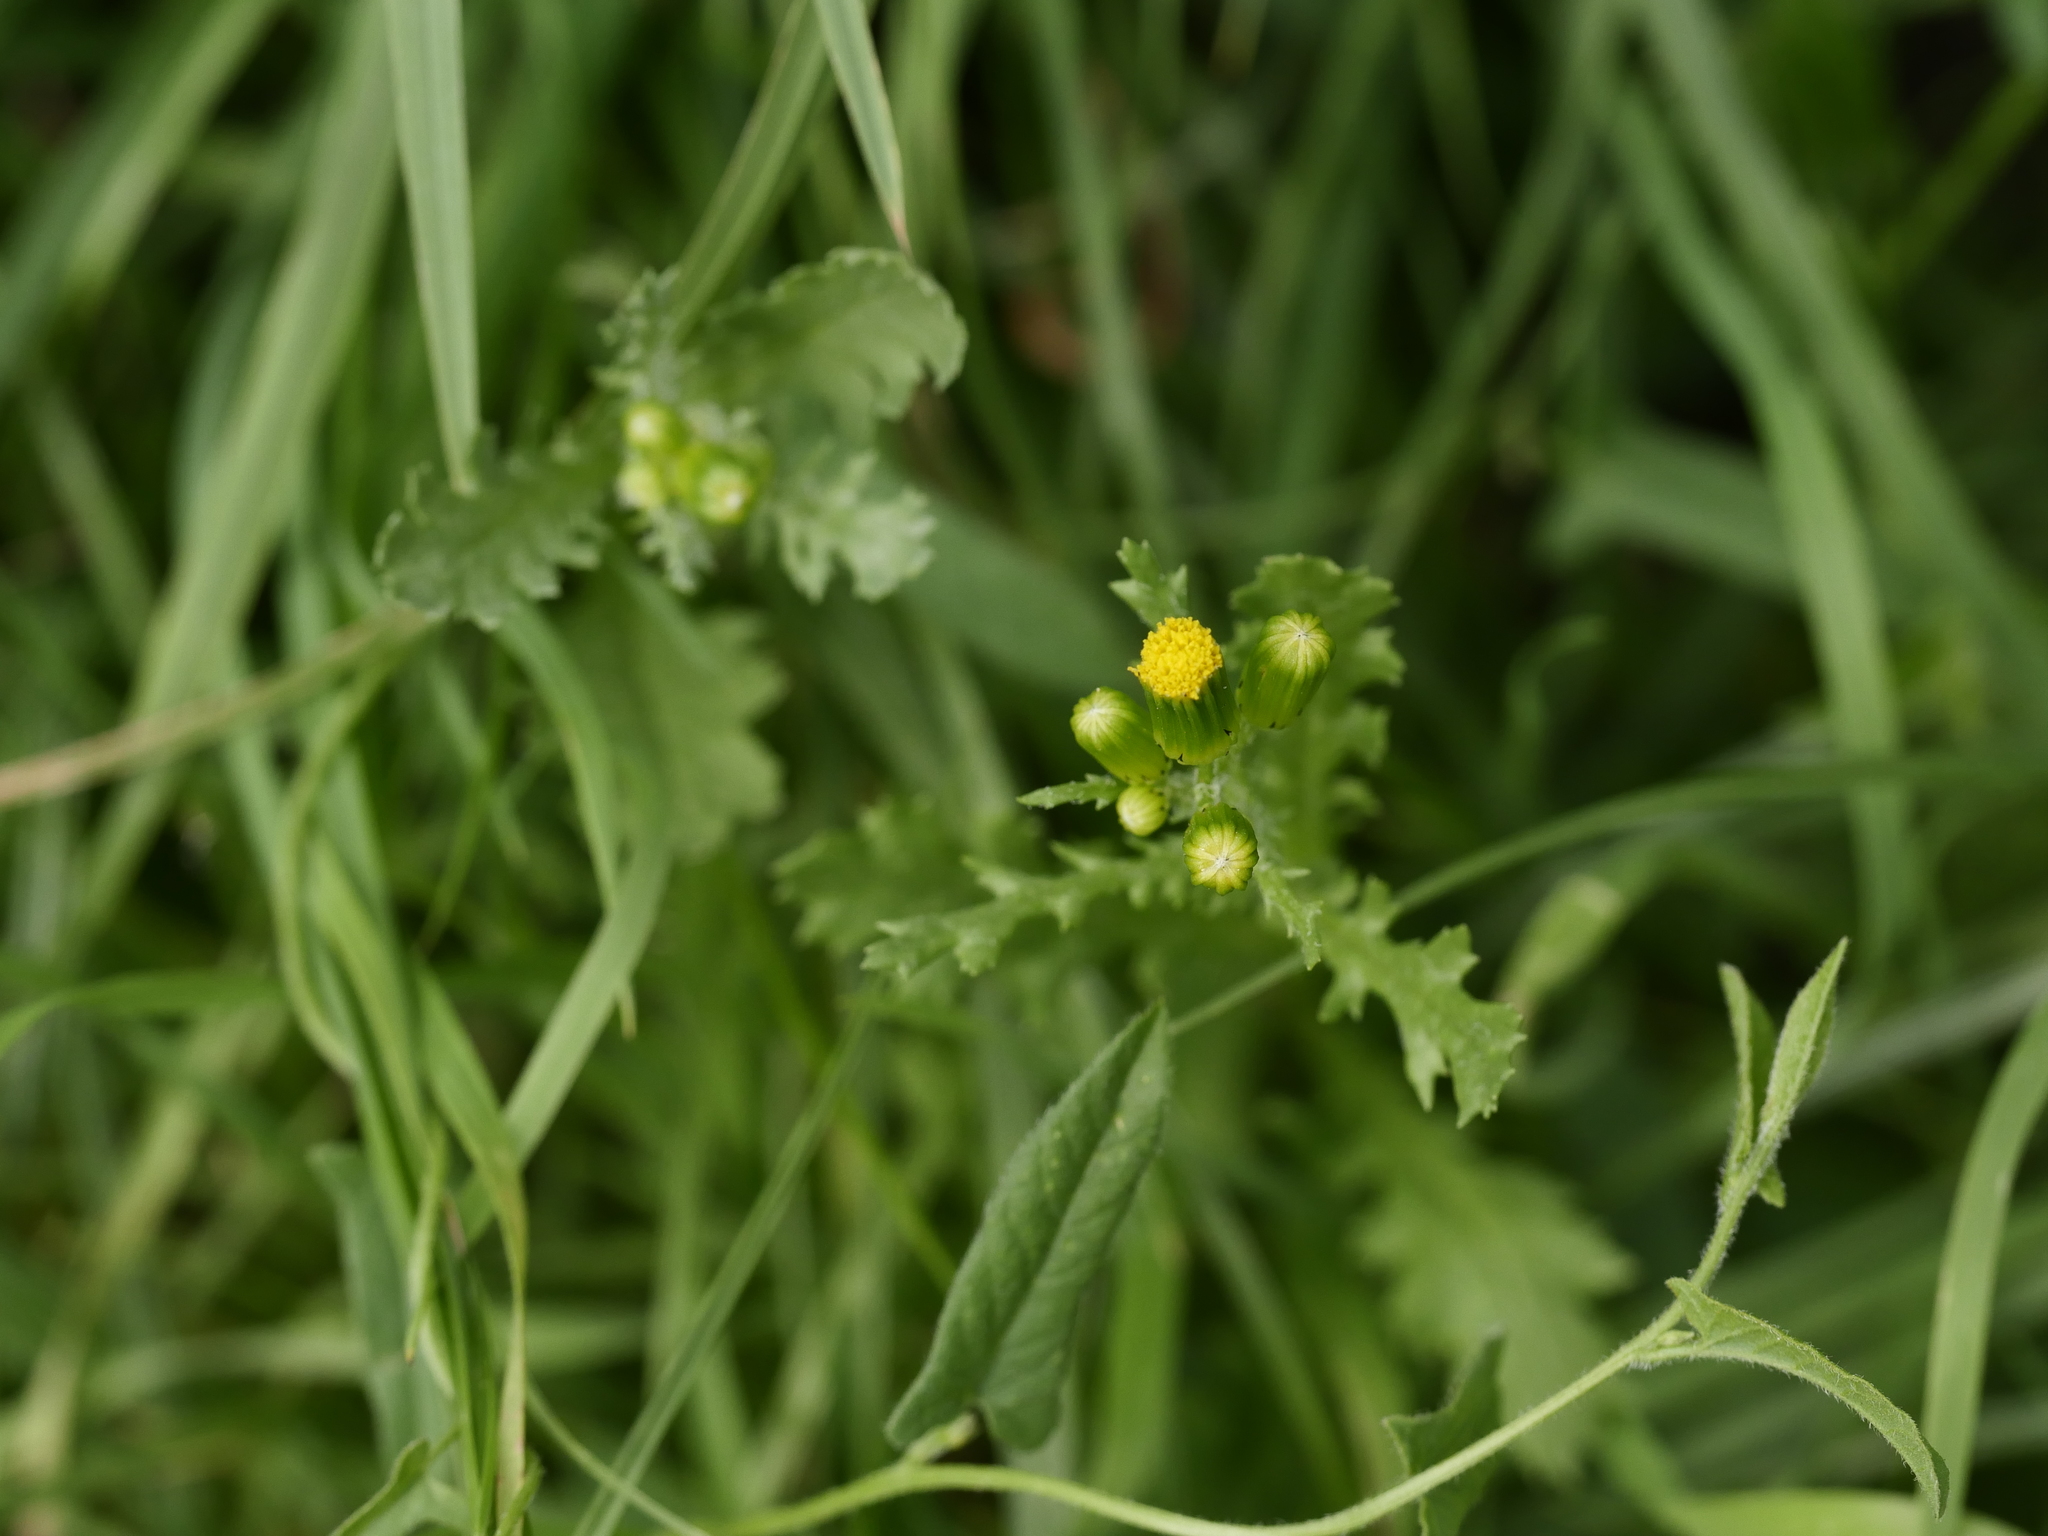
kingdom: Plantae
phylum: Tracheophyta
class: Magnoliopsida
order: Asterales
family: Asteraceae
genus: Senecio
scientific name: Senecio vulgaris
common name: Old-man-in-the-spring
